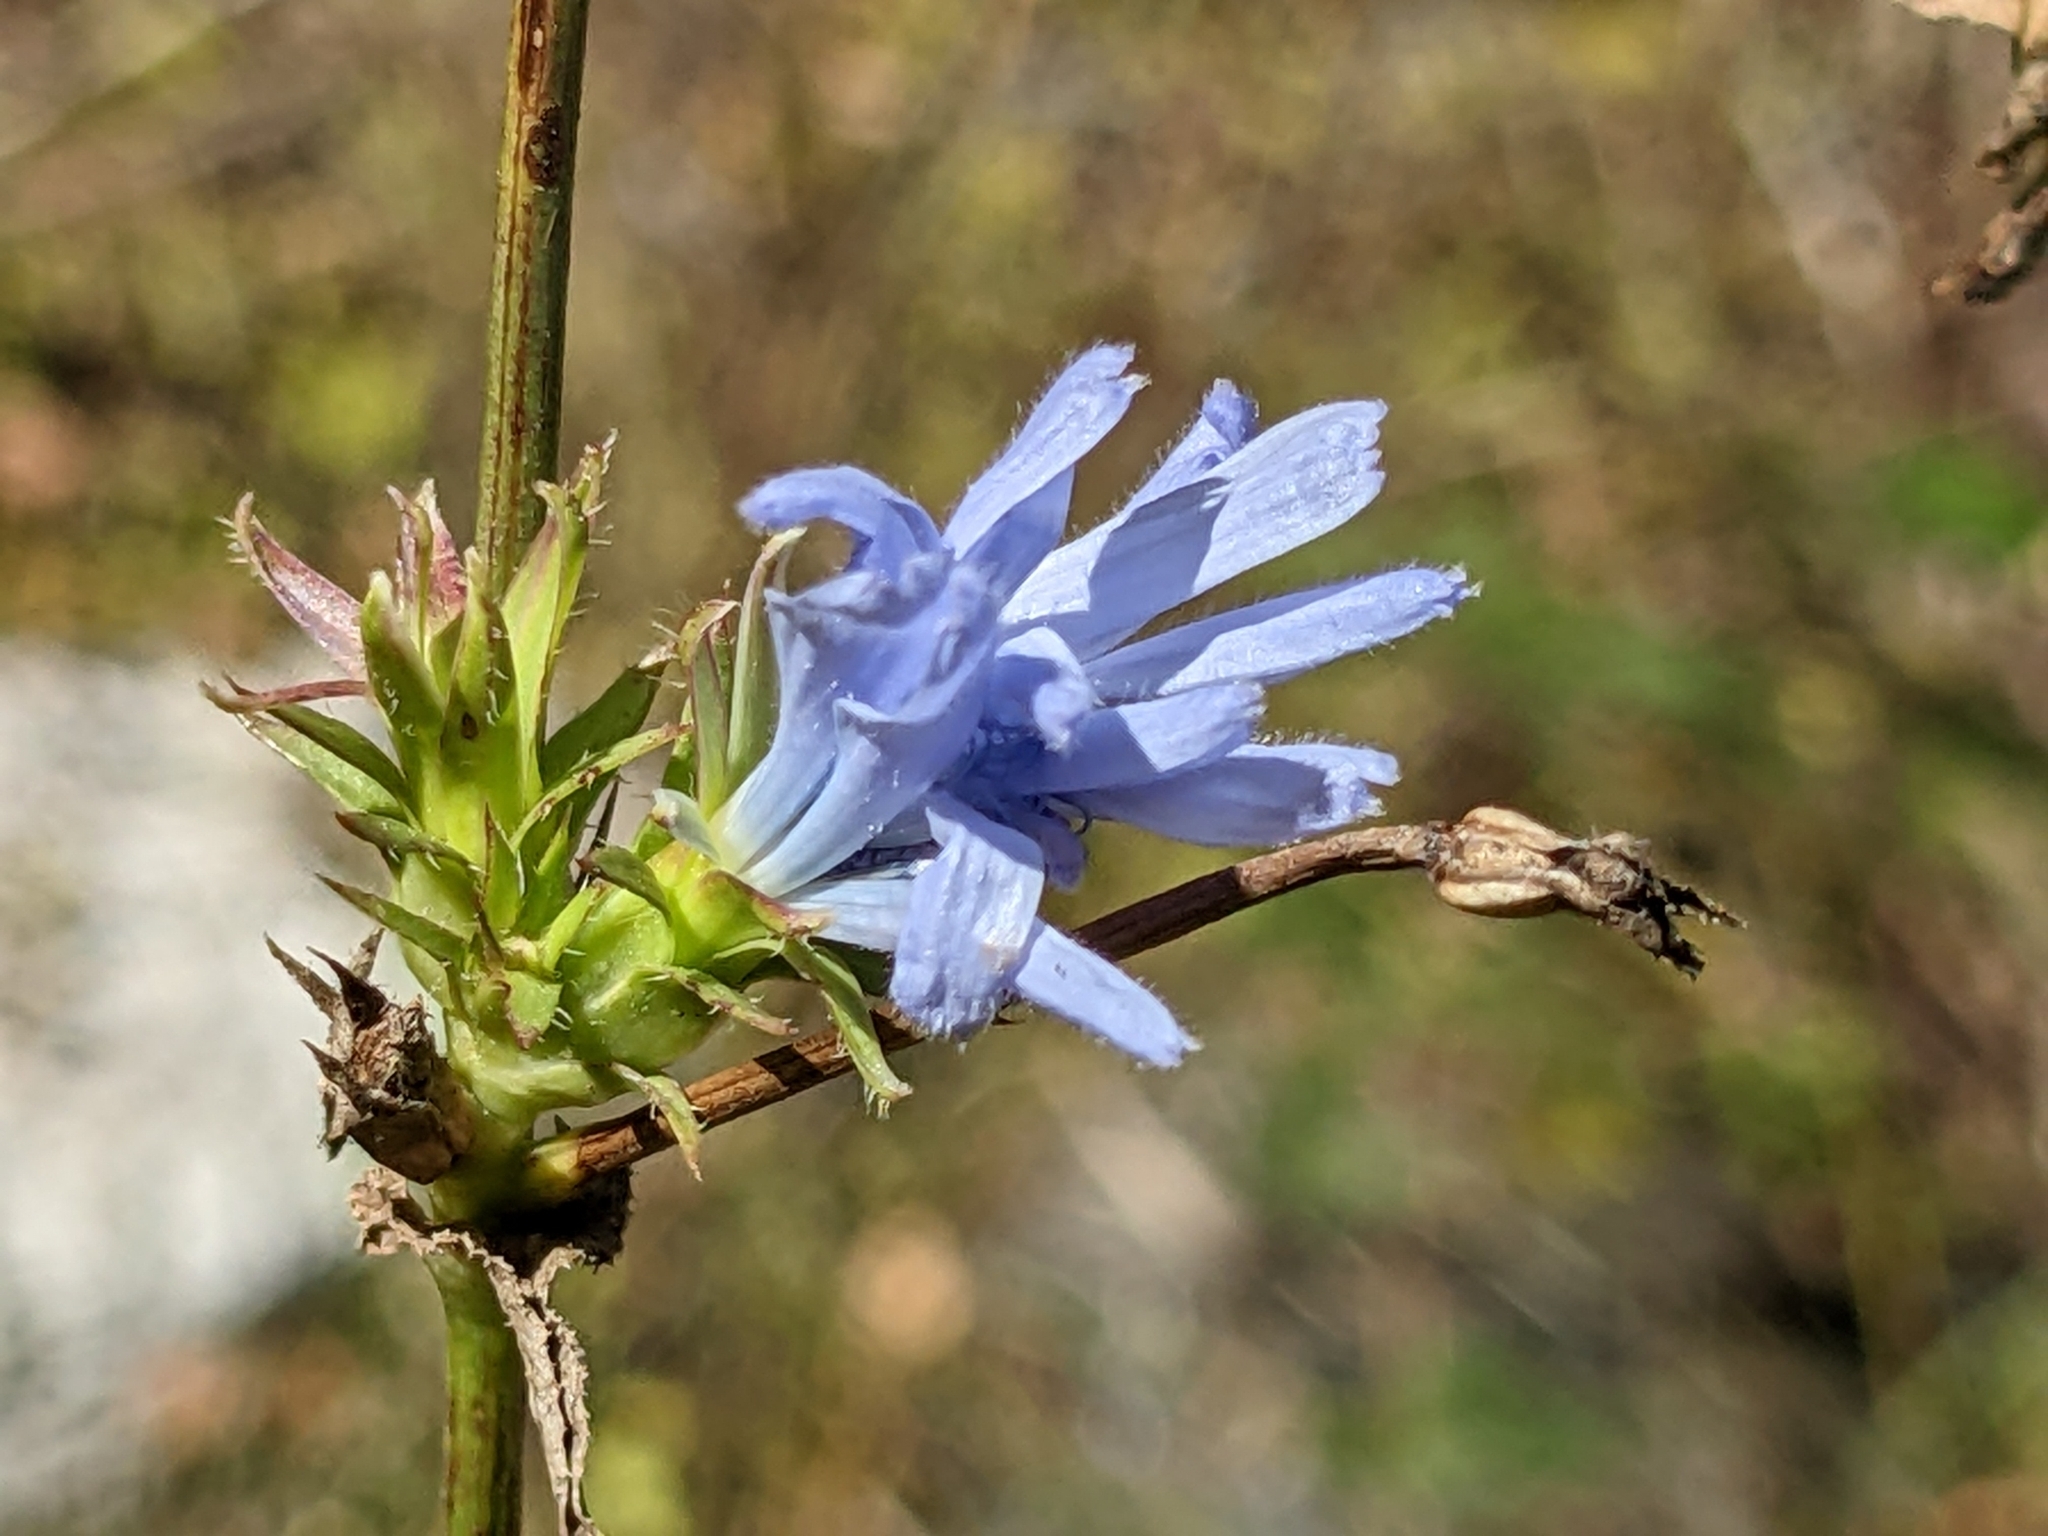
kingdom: Plantae
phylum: Tracheophyta
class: Magnoliopsida
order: Asterales
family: Asteraceae
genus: Cichorium
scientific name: Cichorium intybus
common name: Chicory
